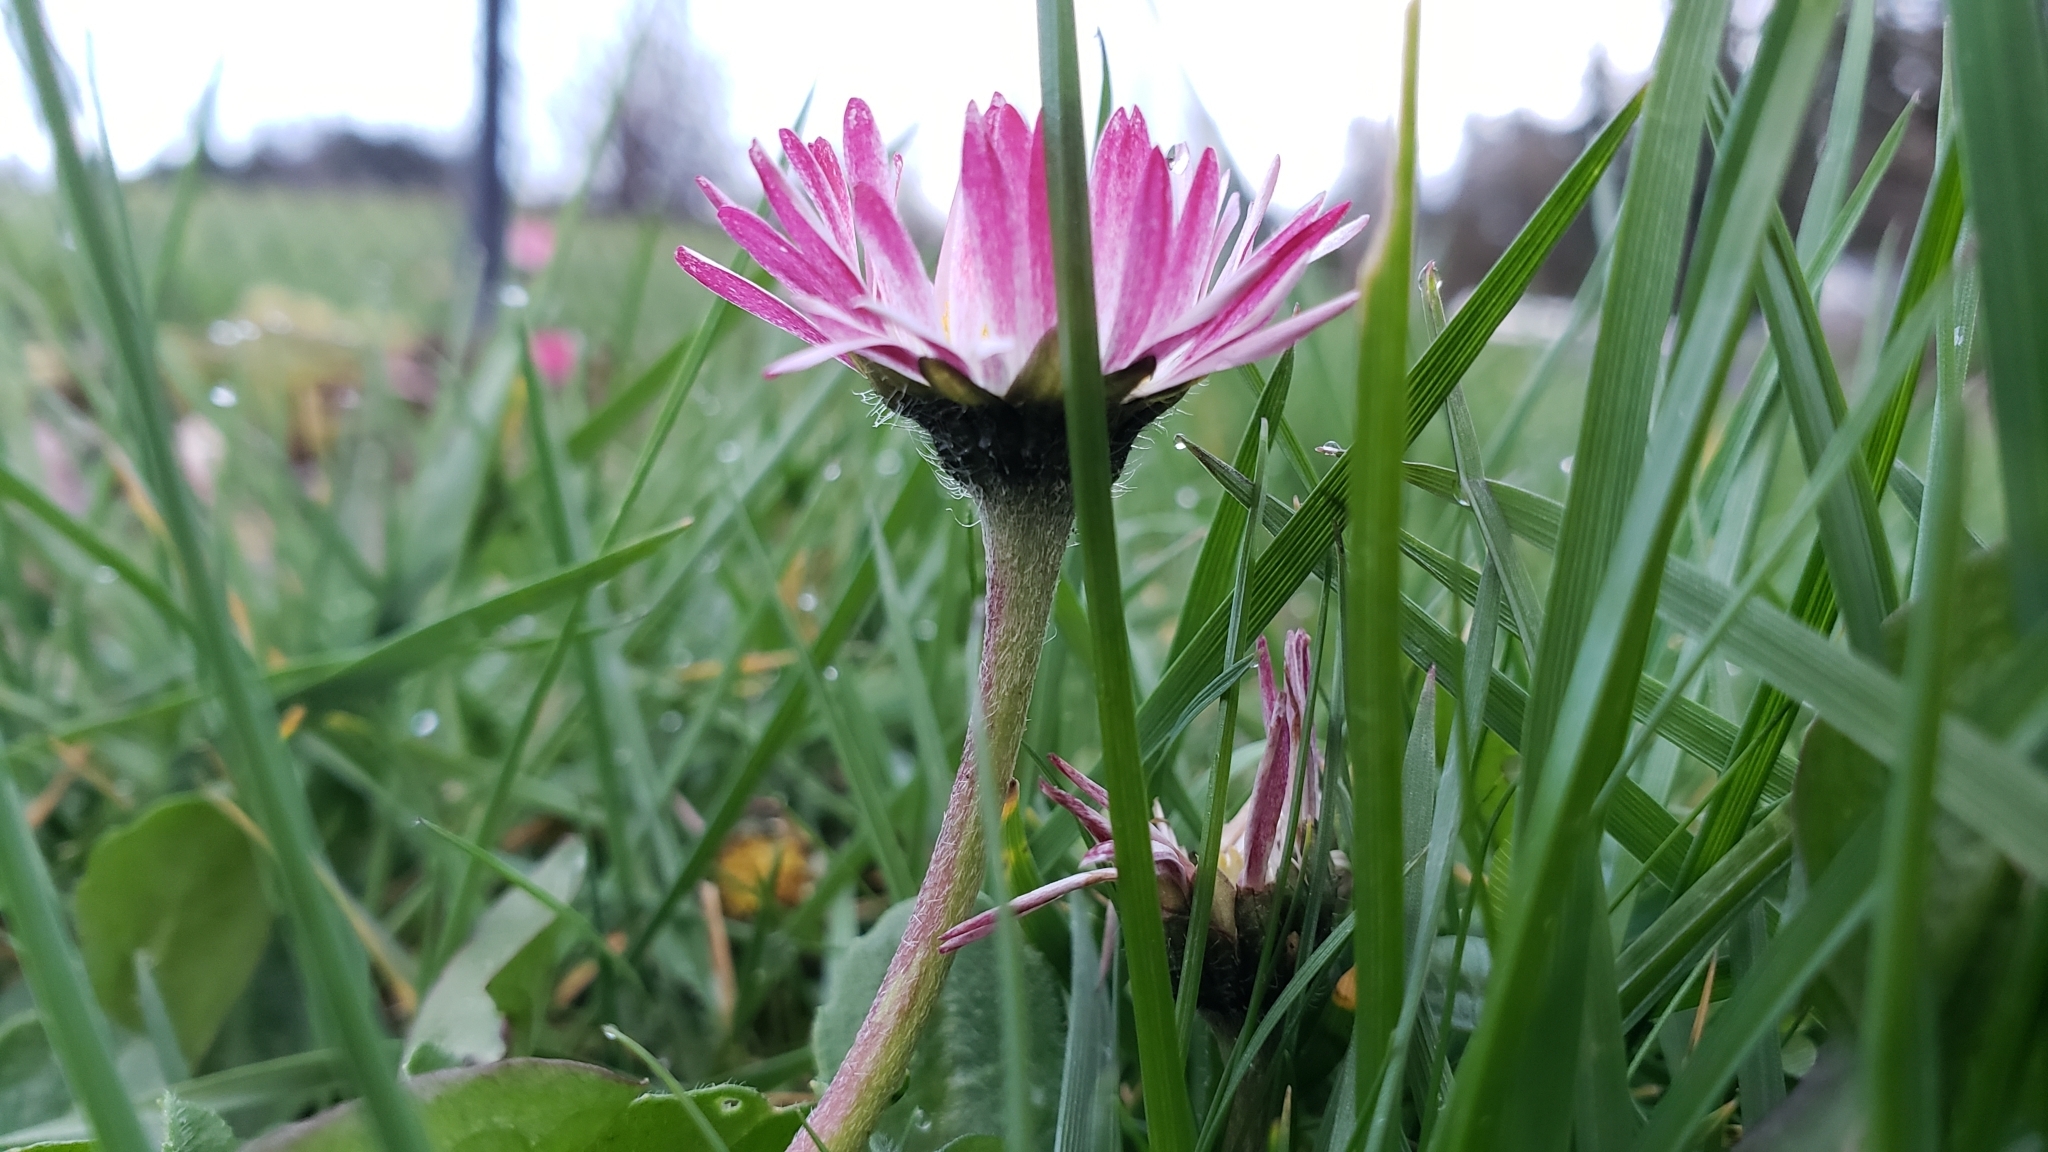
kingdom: Plantae
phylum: Tracheophyta
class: Magnoliopsida
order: Asterales
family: Asteraceae
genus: Bellis
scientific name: Bellis perennis
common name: Lawndaisy
